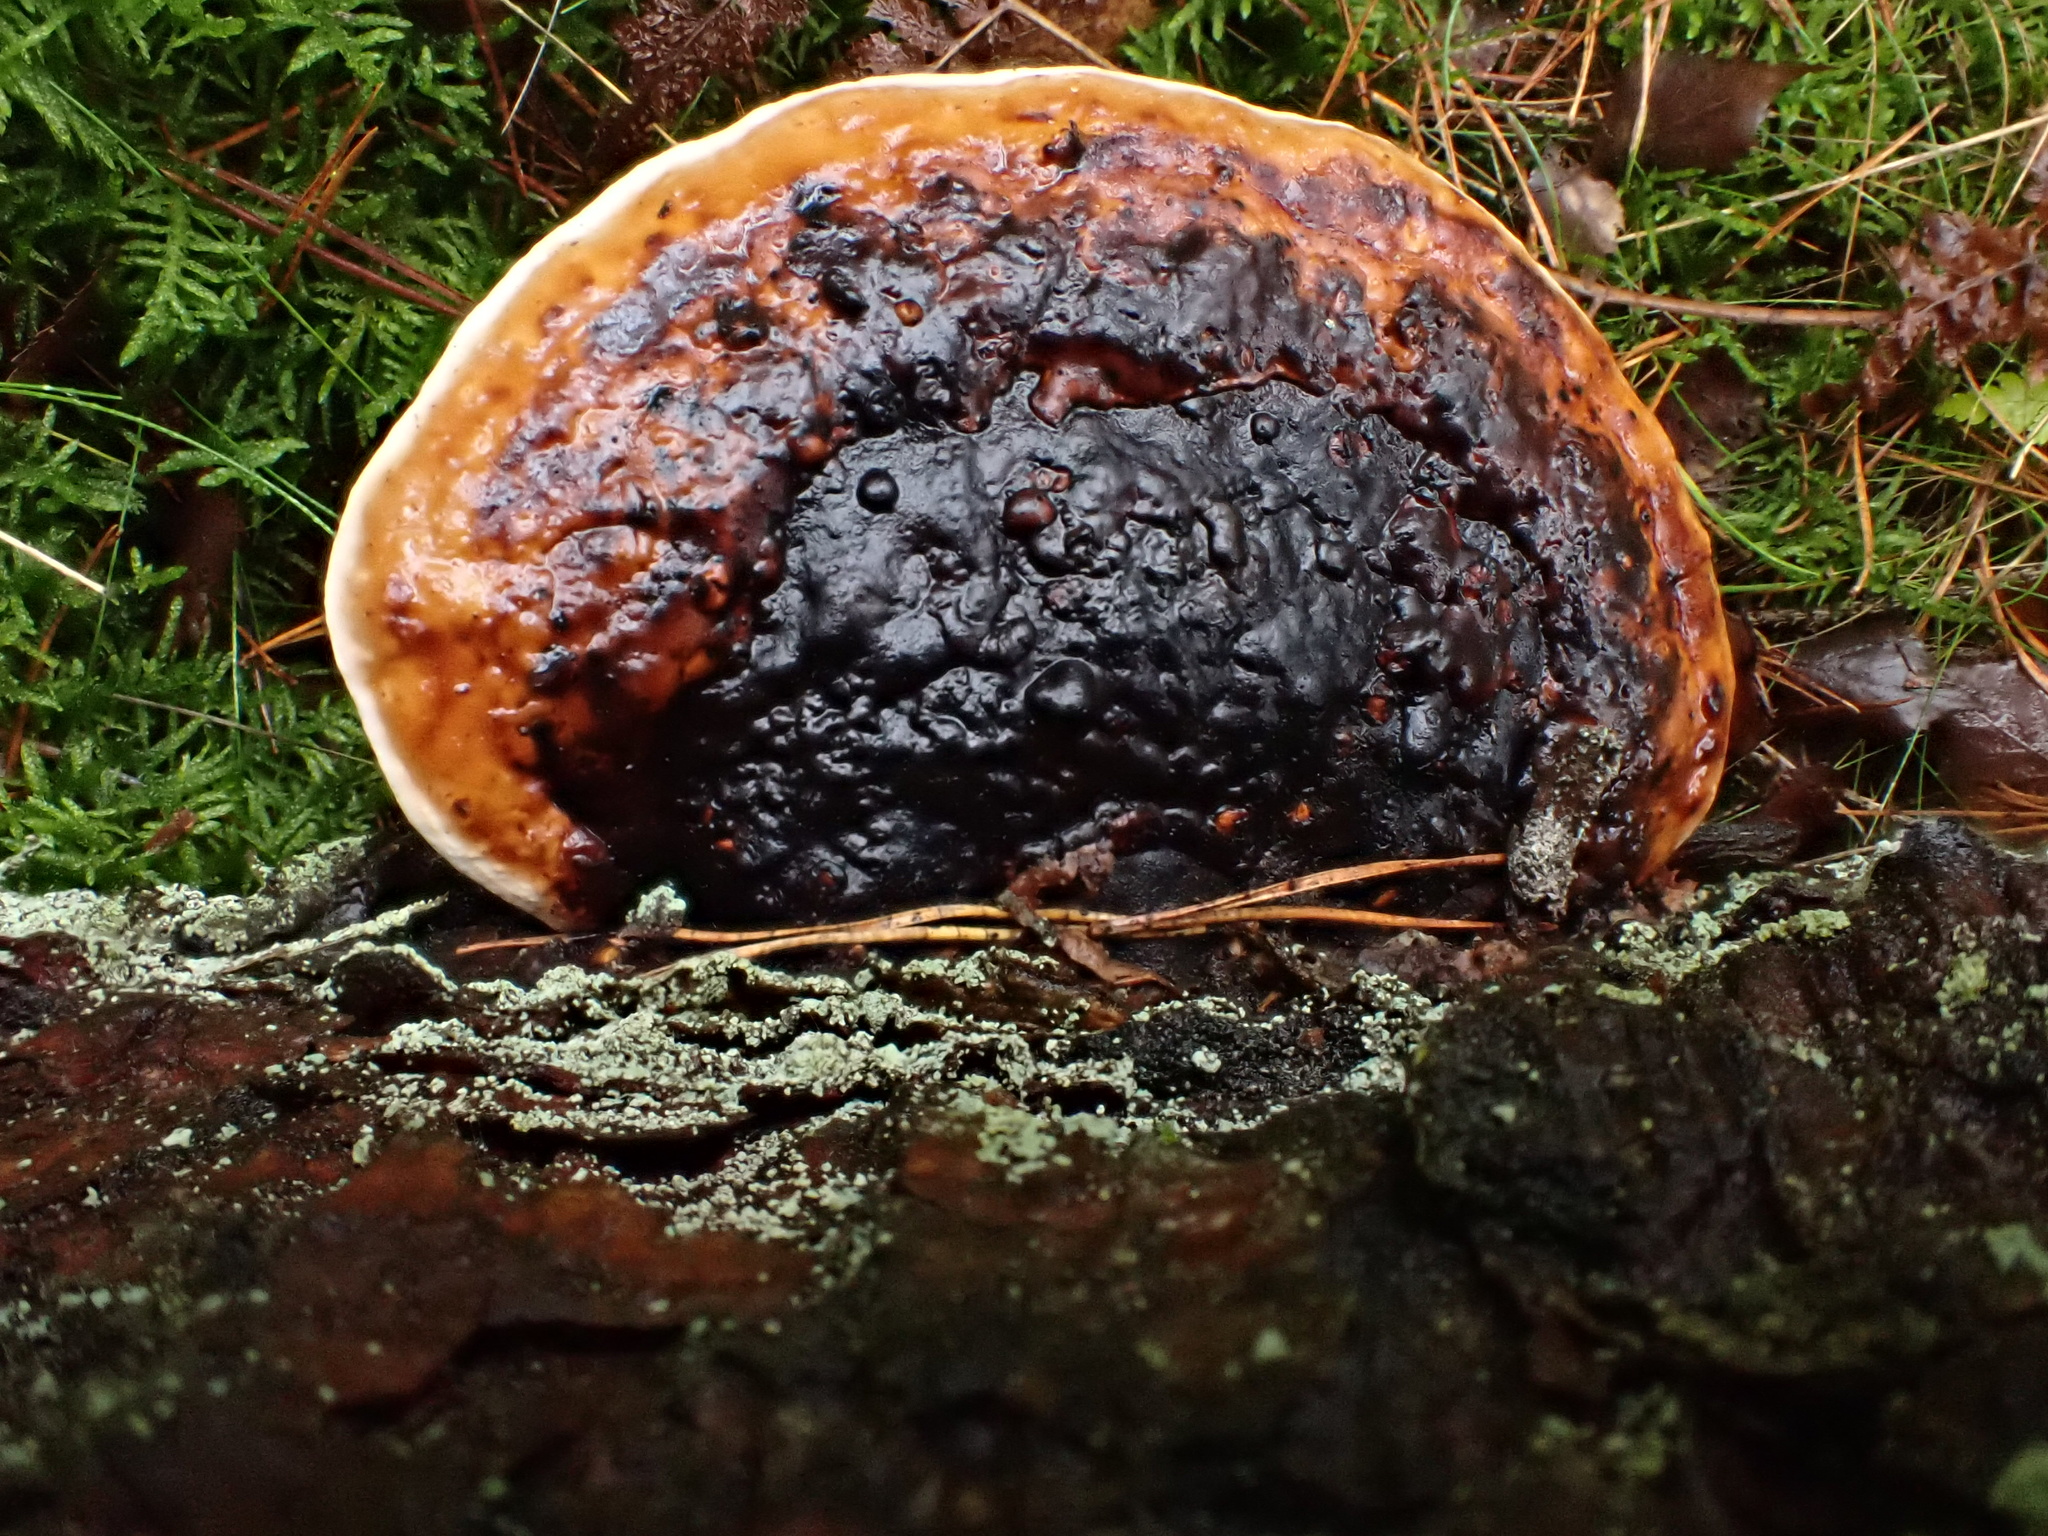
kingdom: Fungi
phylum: Basidiomycota
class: Agaricomycetes
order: Polyporales
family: Fomitopsidaceae
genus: Fomitopsis
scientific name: Fomitopsis pinicola
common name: Red-belted bracket
